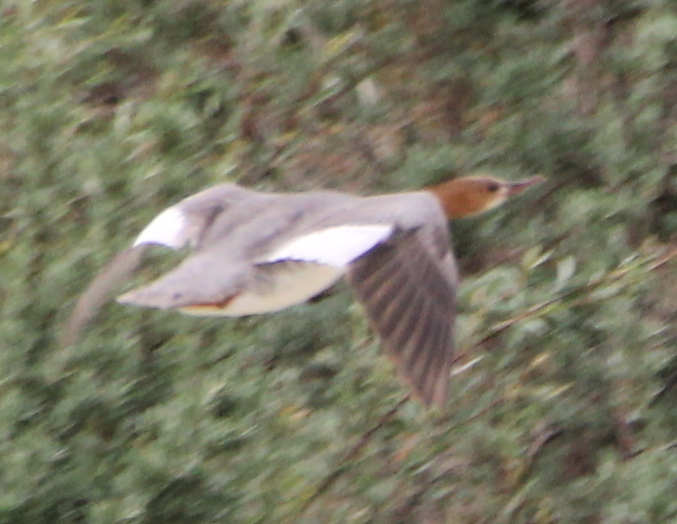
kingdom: Animalia
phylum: Chordata
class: Aves
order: Anseriformes
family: Anatidae
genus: Mergus
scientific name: Mergus merganser
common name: Common merganser
